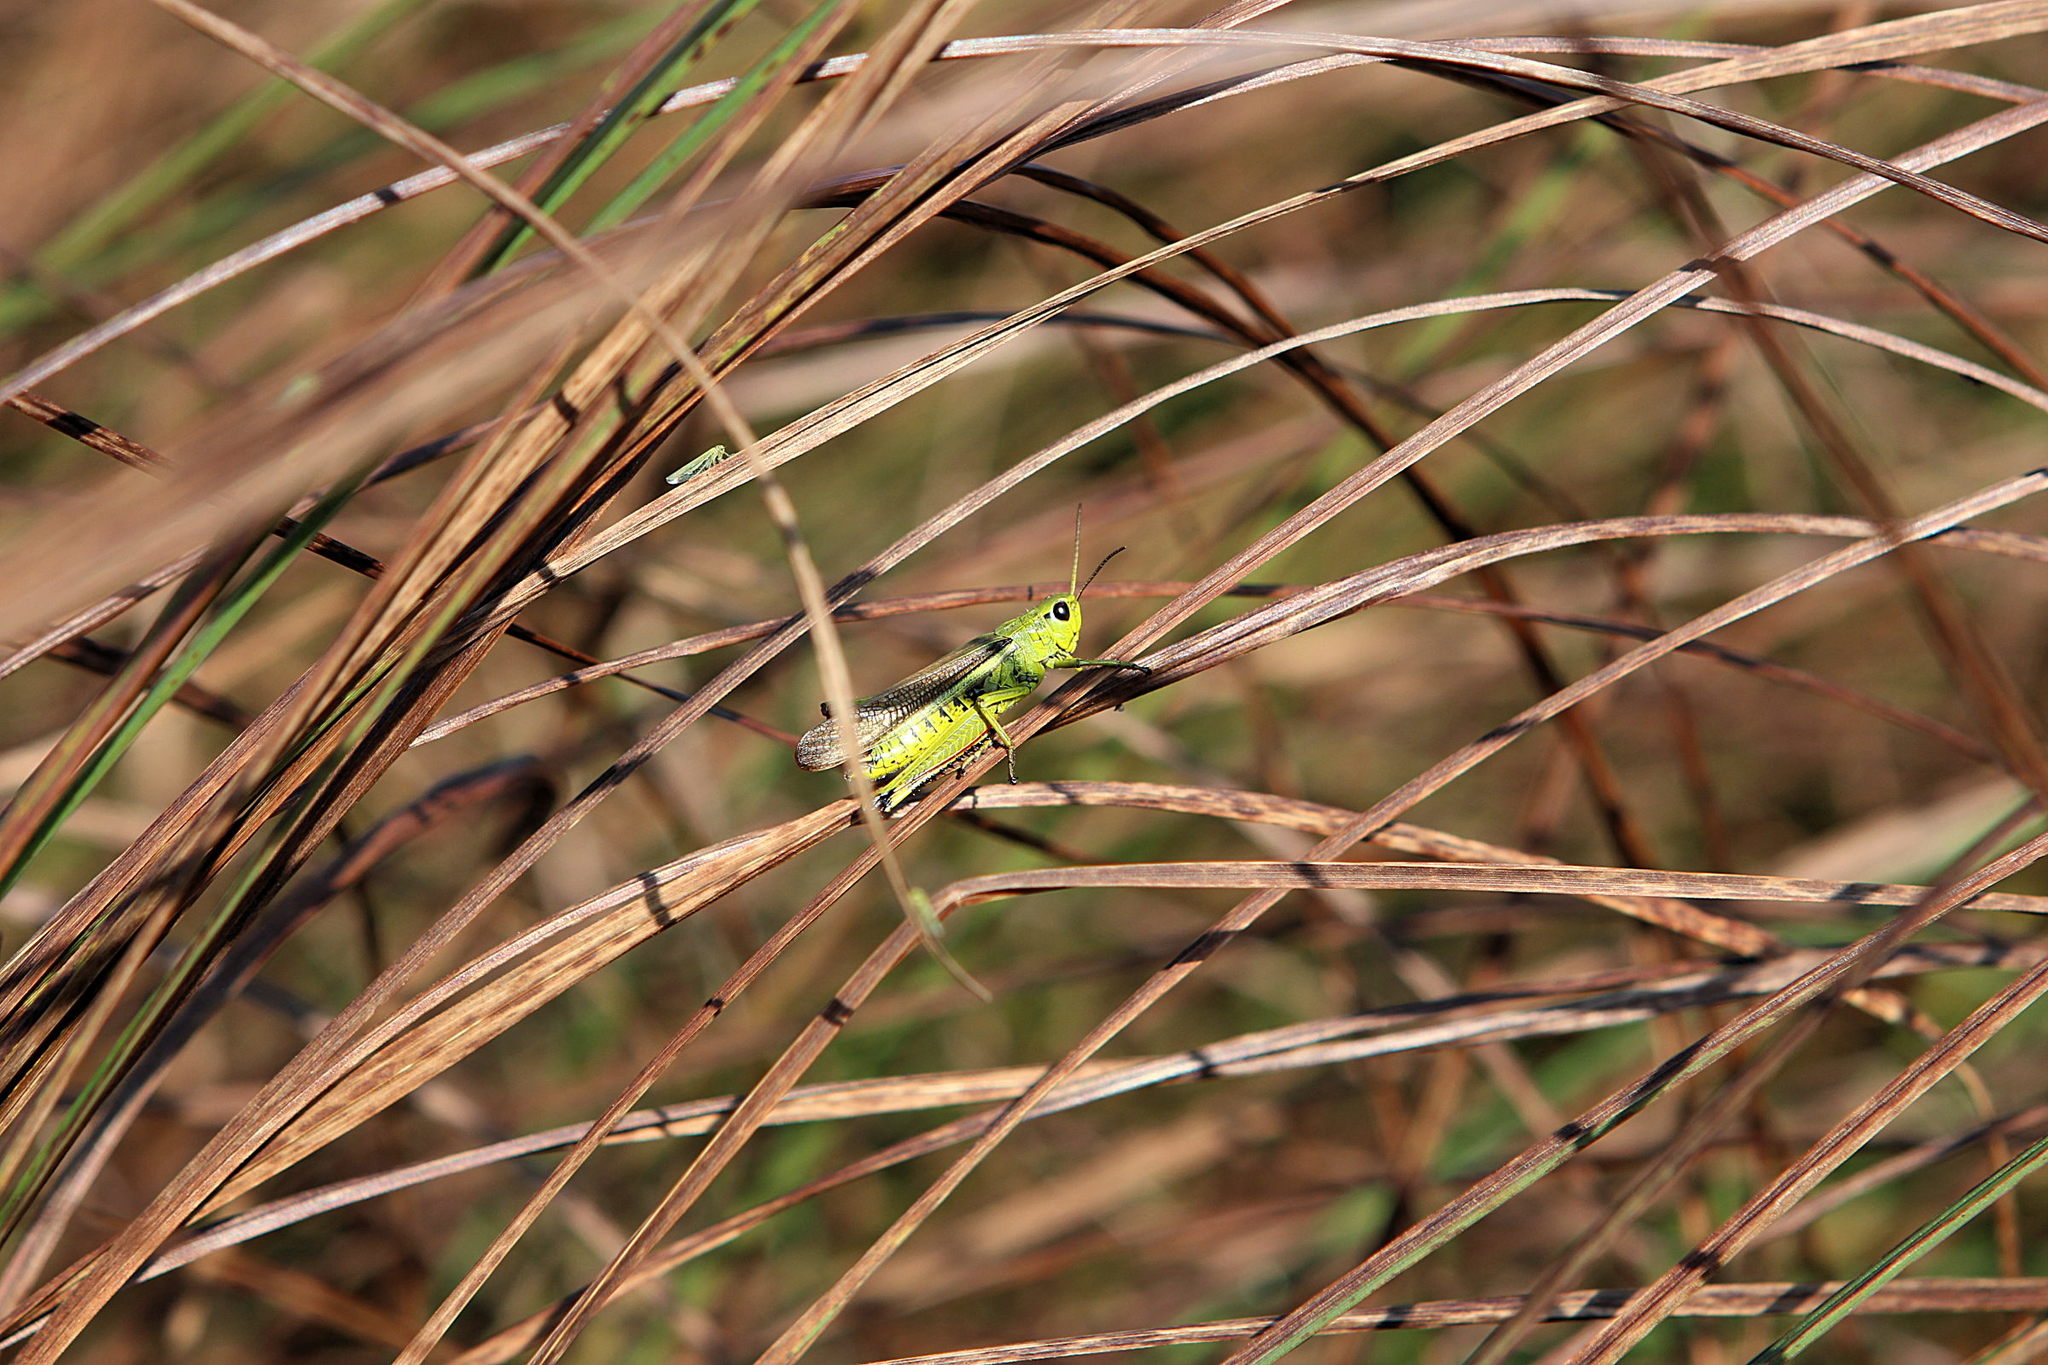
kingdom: Animalia
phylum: Arthropoda
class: Insecta
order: Orthoptera
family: Acrididae
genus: Stethophyma
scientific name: Stethophyma grossum
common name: Large marsh grasshopper
